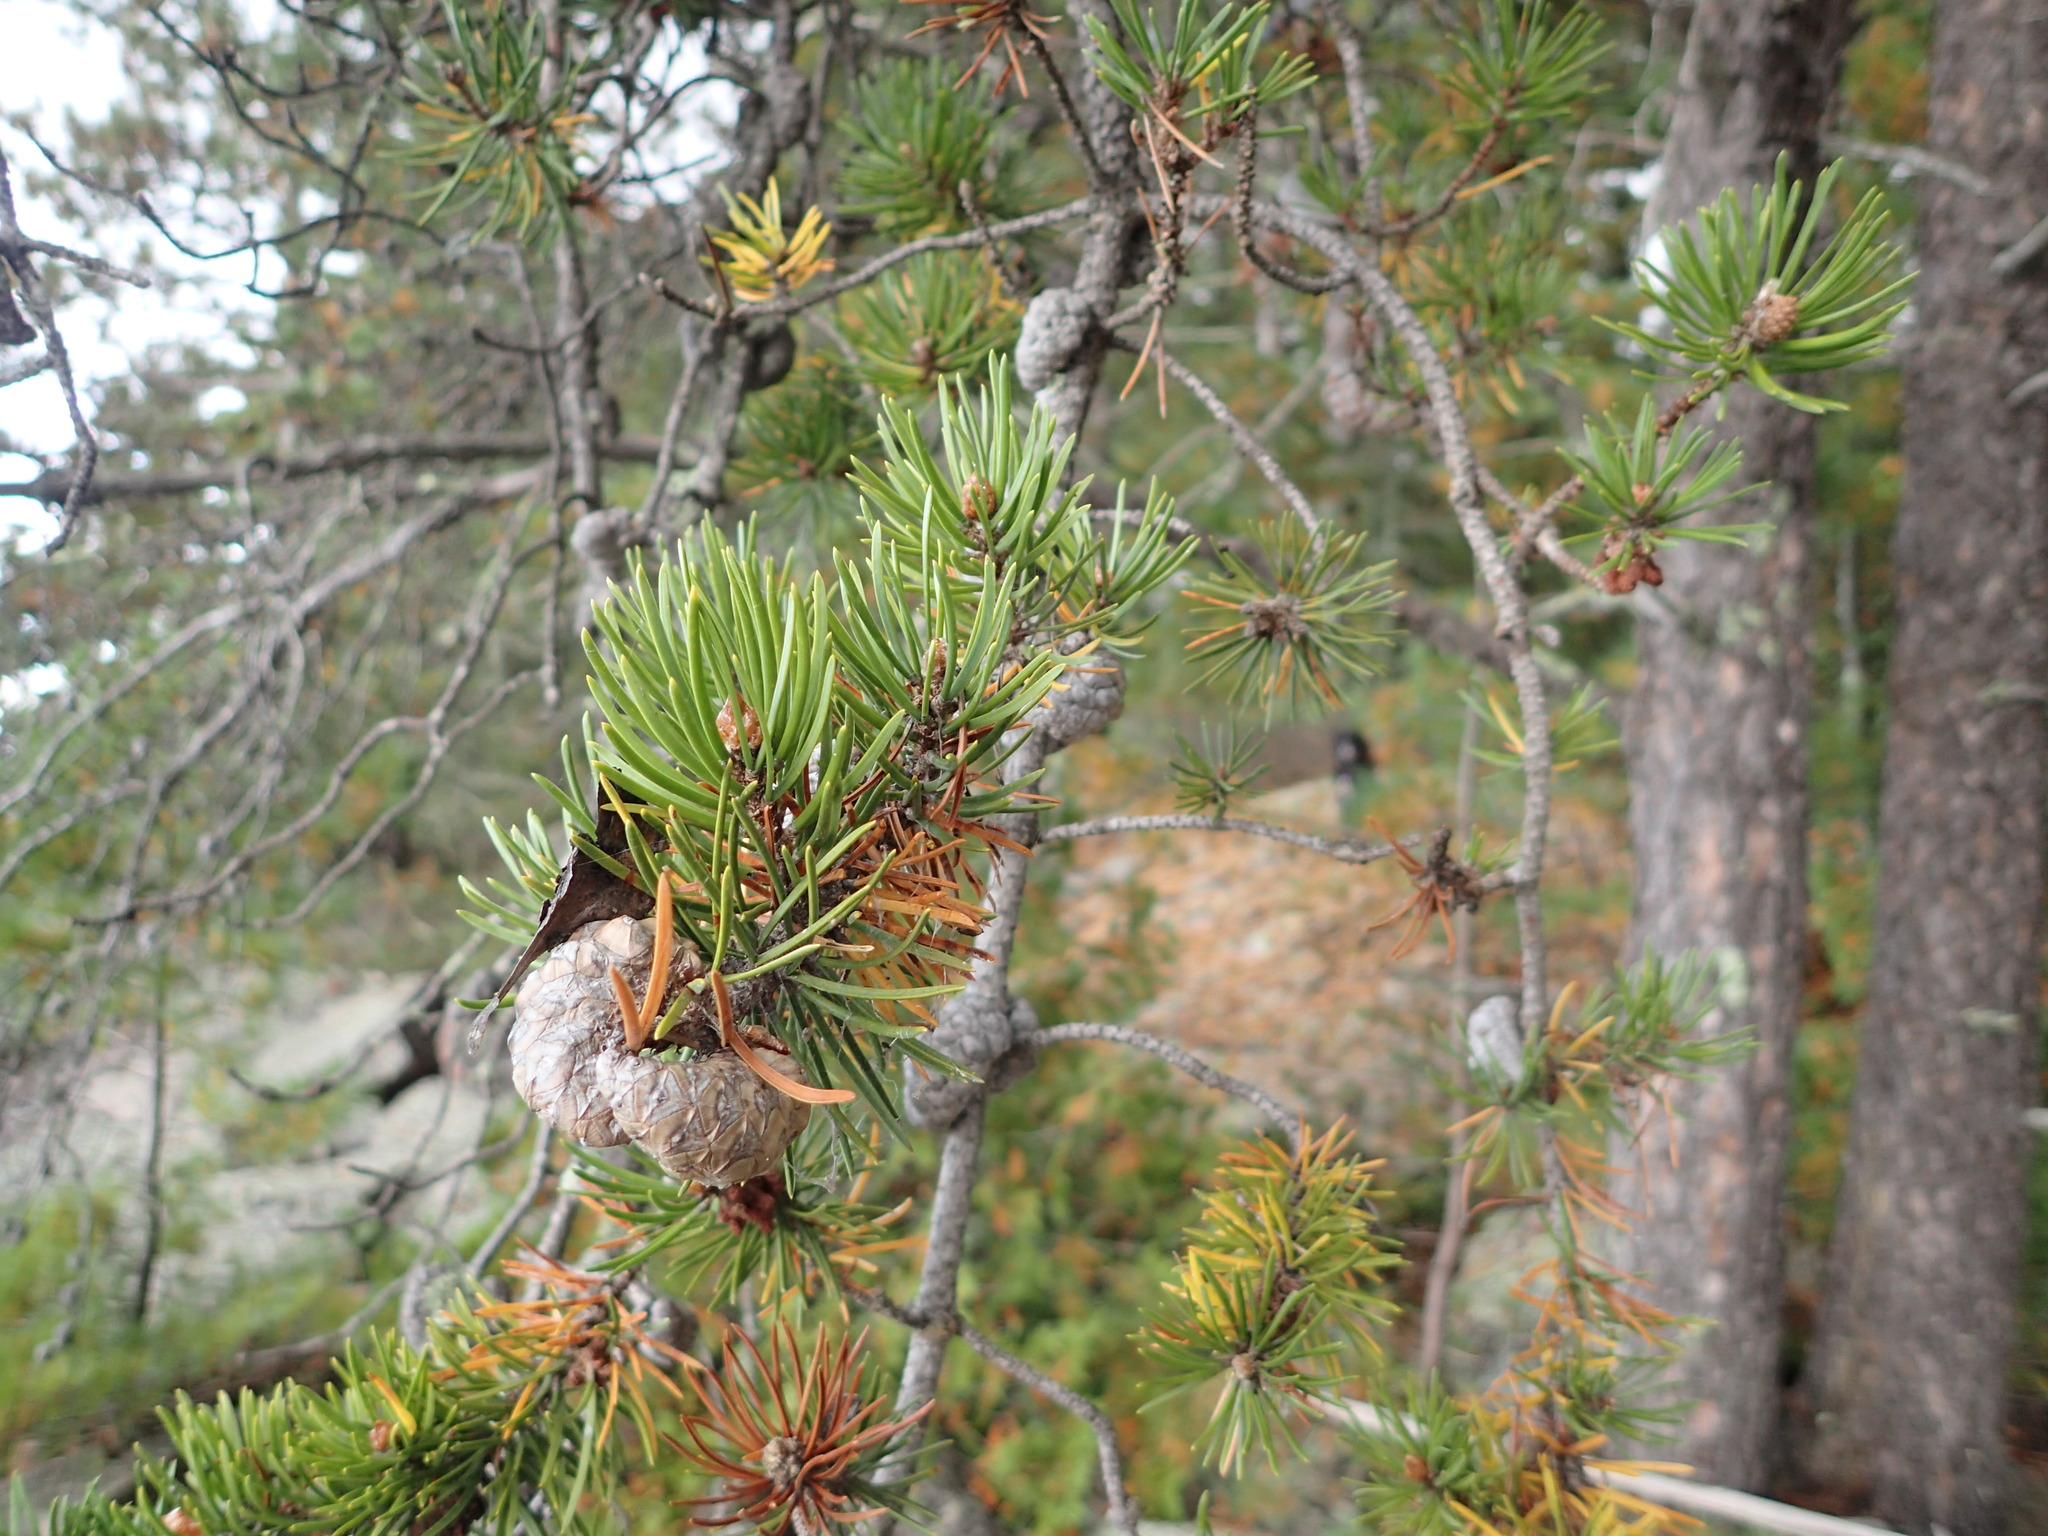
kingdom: Plantae
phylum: Tracheophyta
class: Pinopsida
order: Pinales
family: Pinaceae
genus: Pinus
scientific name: Pinus banksiana
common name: Jack pine
